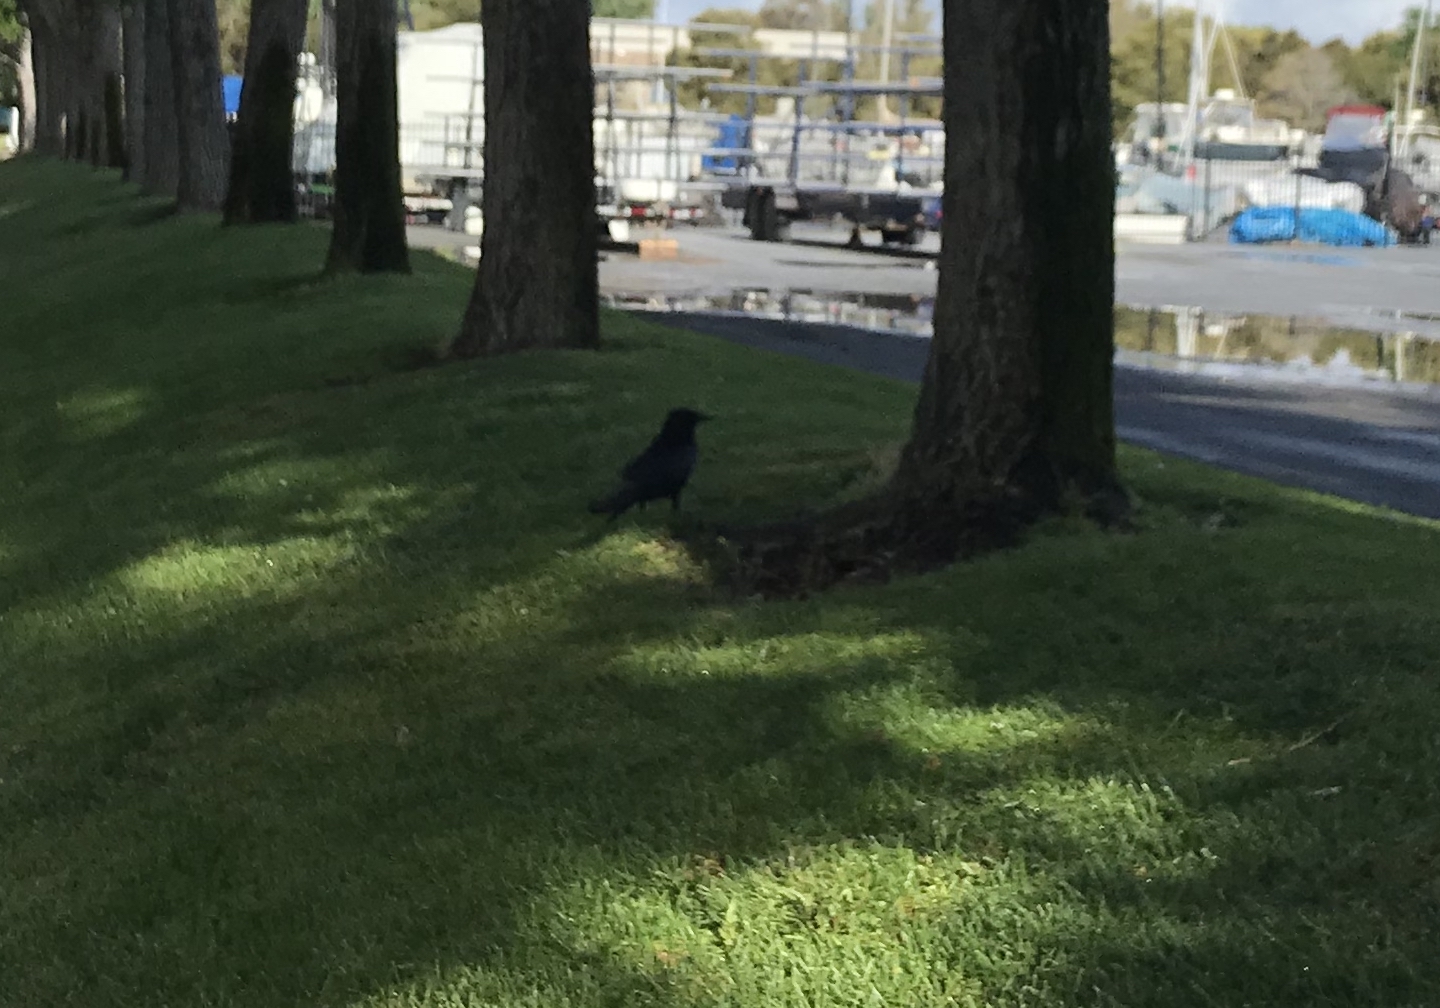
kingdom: Animalia
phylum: Chordata
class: Aves
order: Passeriformes
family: Corvidae
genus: Corvus
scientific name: Corvus brachyrhynchos
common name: American crow
